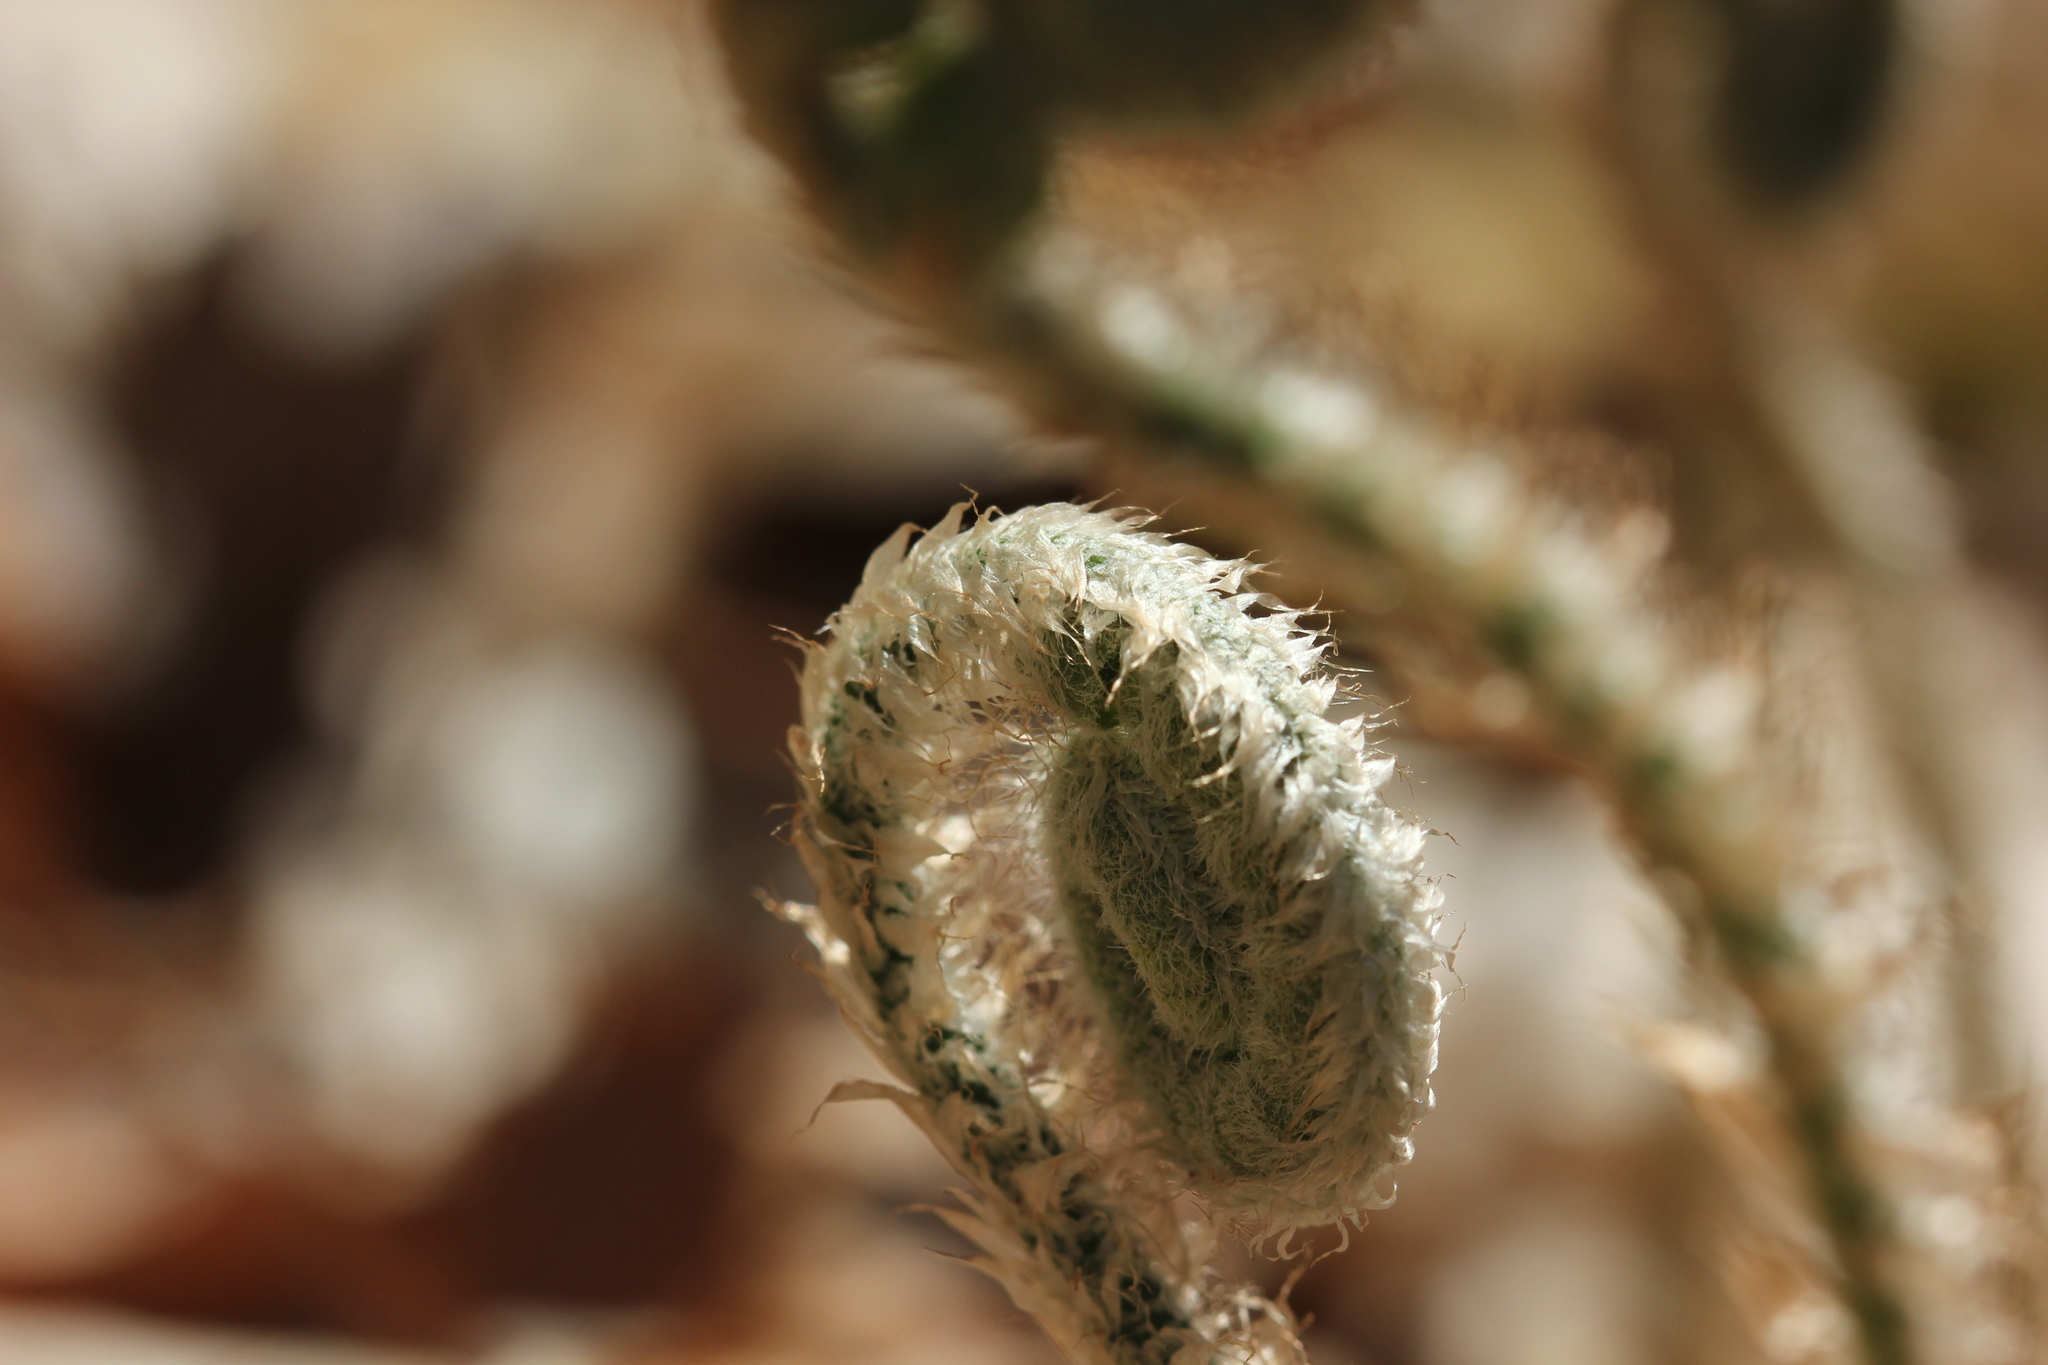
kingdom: Plantae
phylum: Tracheophyta
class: Polypodiopsida
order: Polypodiales
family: Dryopteridaceae
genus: Polystichum
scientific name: Polystichum acrostichoides
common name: Christmas fern
